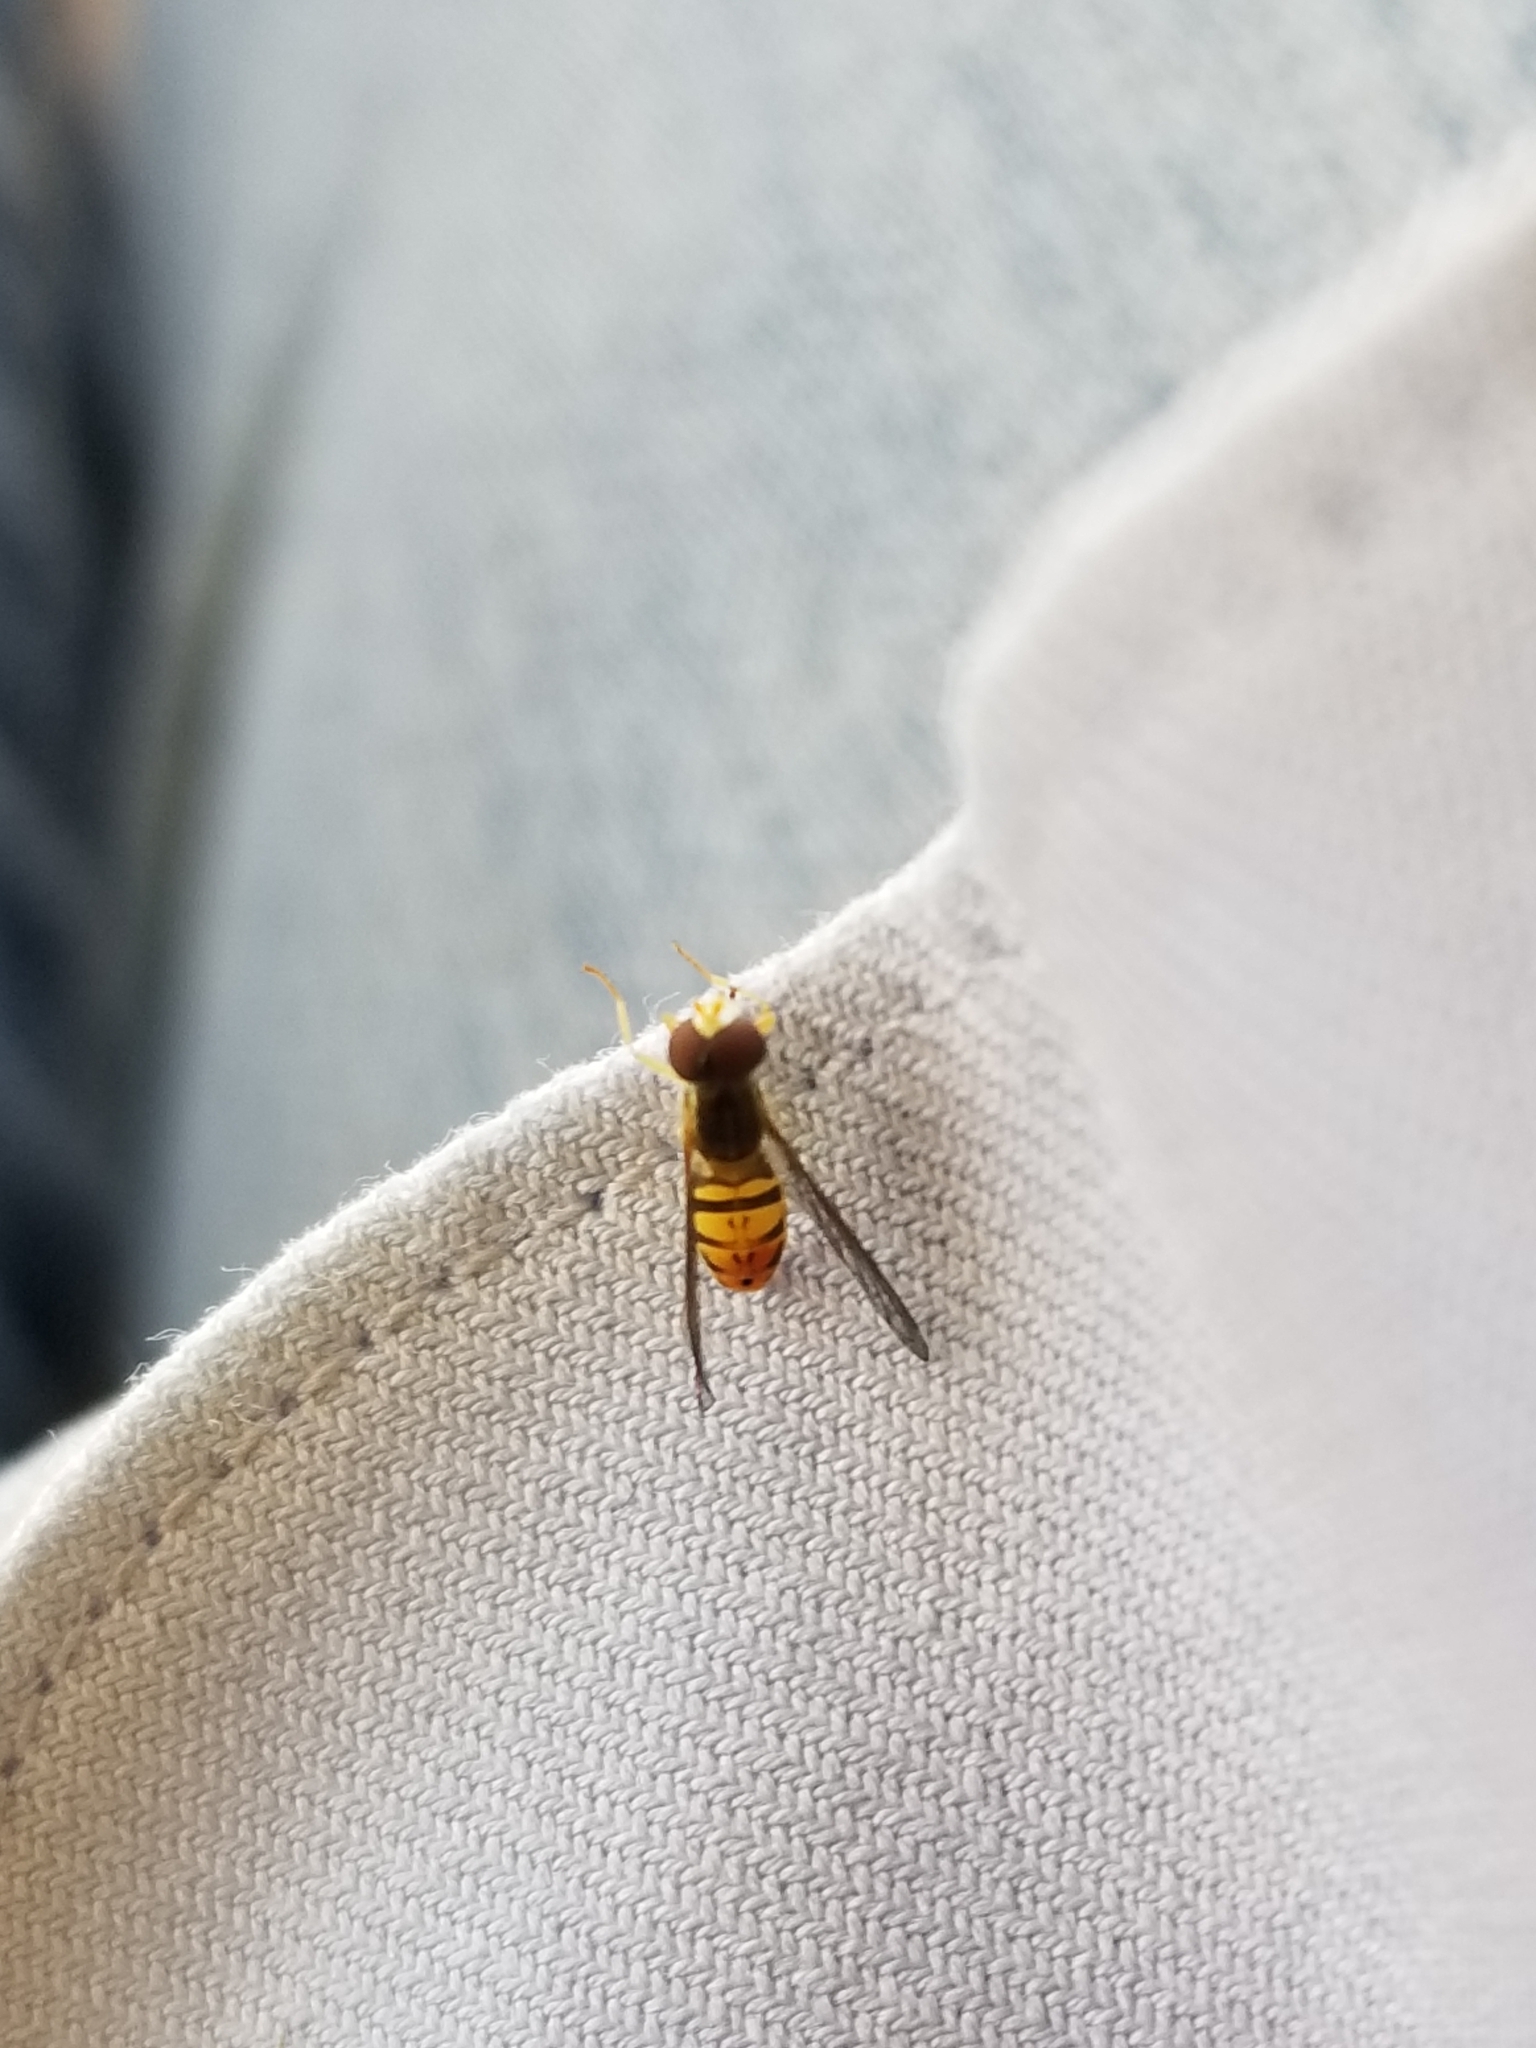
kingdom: Animalia
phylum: Arthropoda
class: Insecta
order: Diptera
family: Syrphidae
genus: Toxomerus
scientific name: Toxomerus marginatus
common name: Syrphid fly
